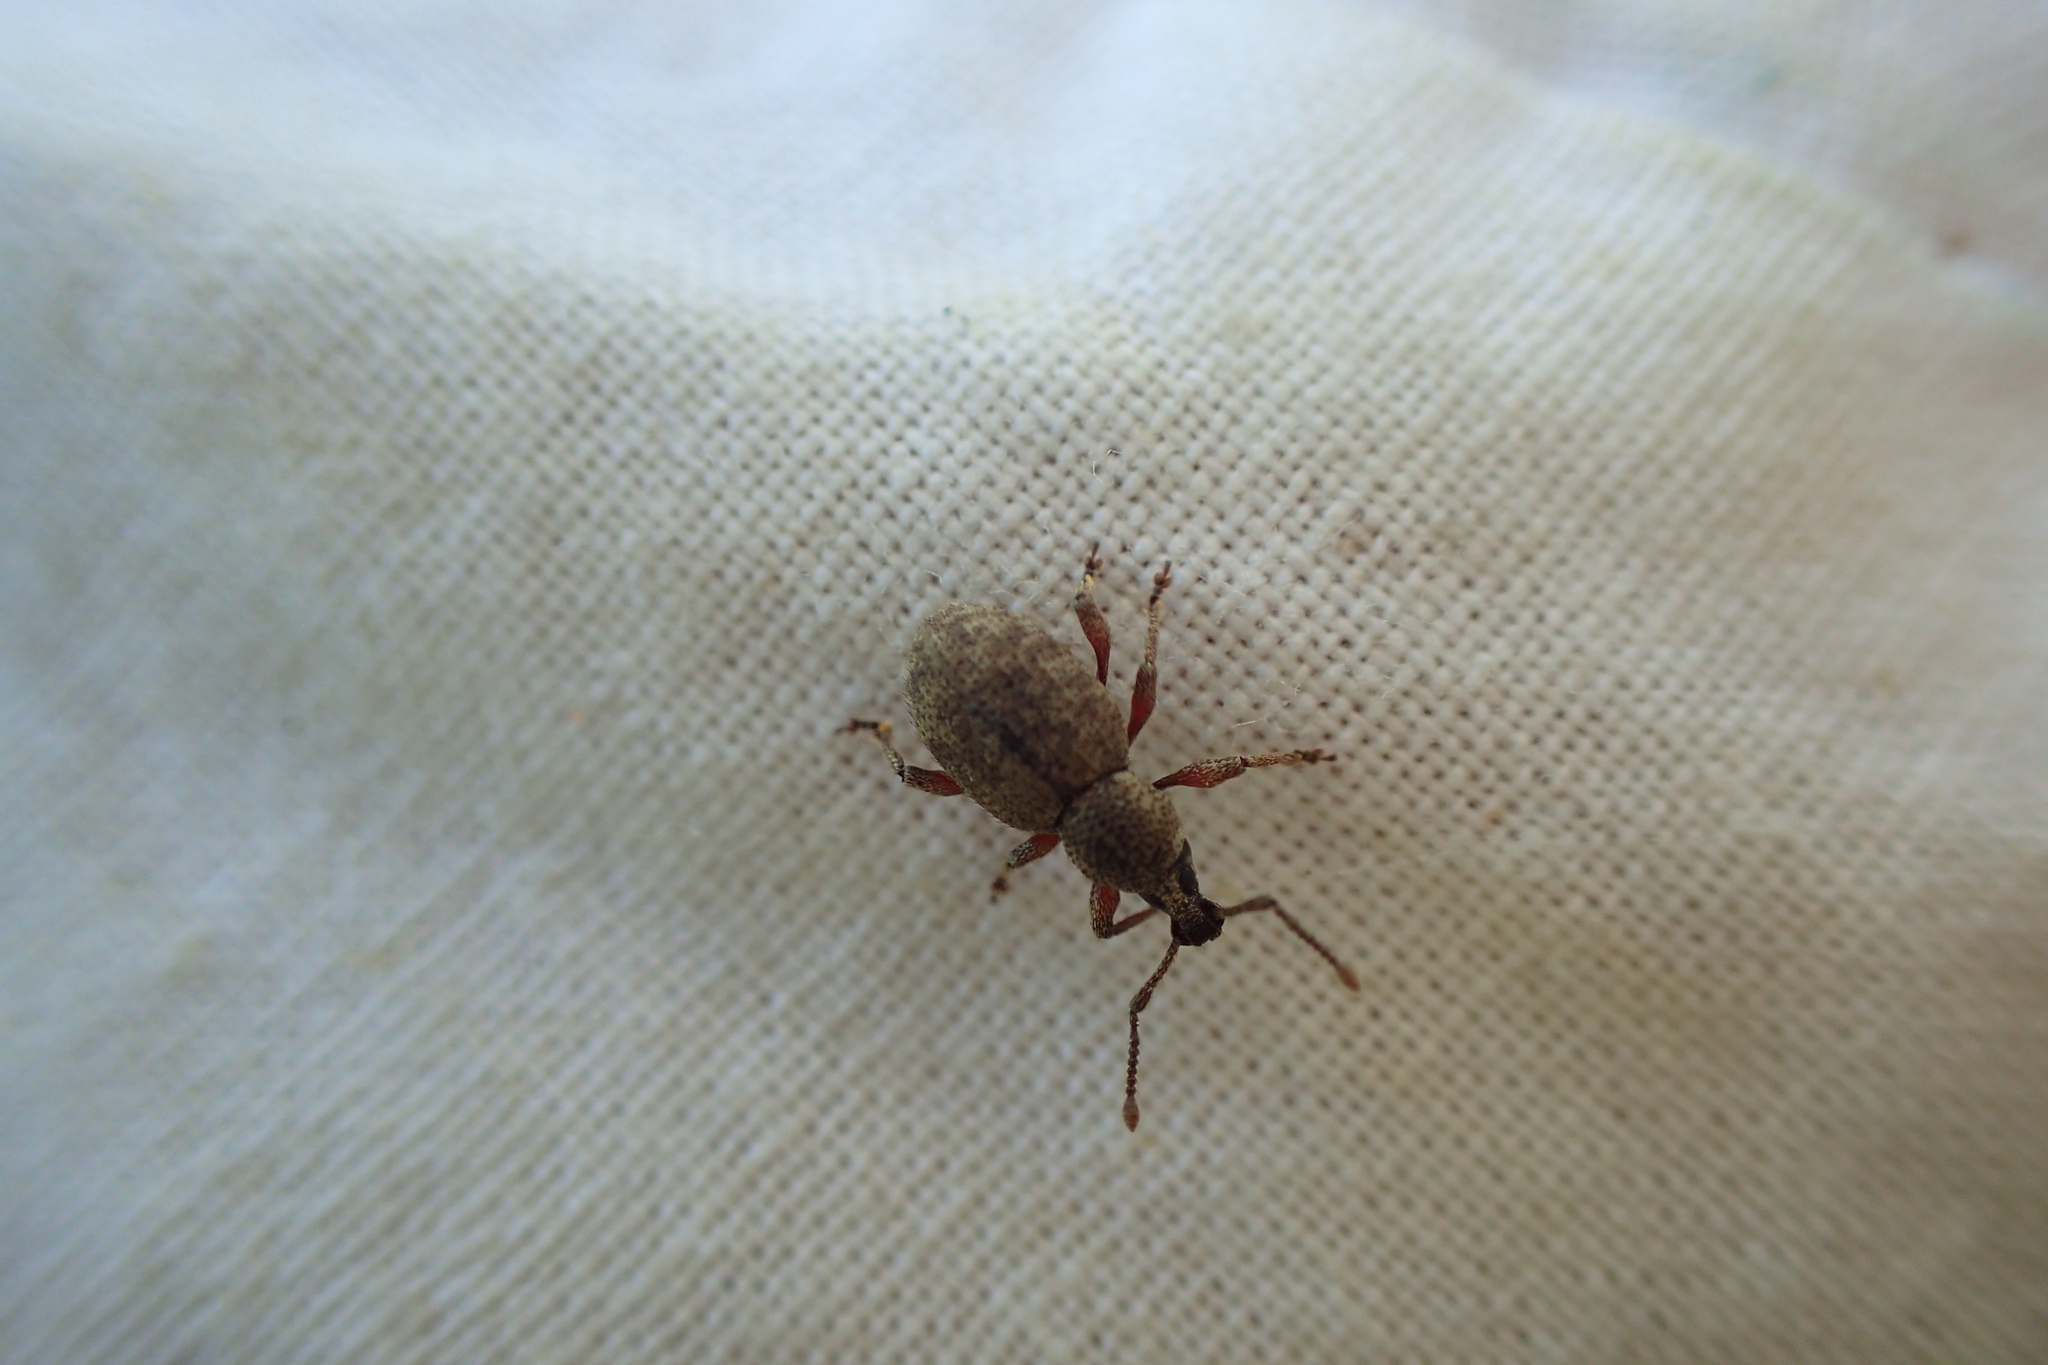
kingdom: Animalia
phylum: Arthropoda
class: Insecta
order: Coleoptera
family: Curculionidae
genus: Otiorhynchus
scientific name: Otiorhynchus singularis
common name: Clay-coloured weevil
